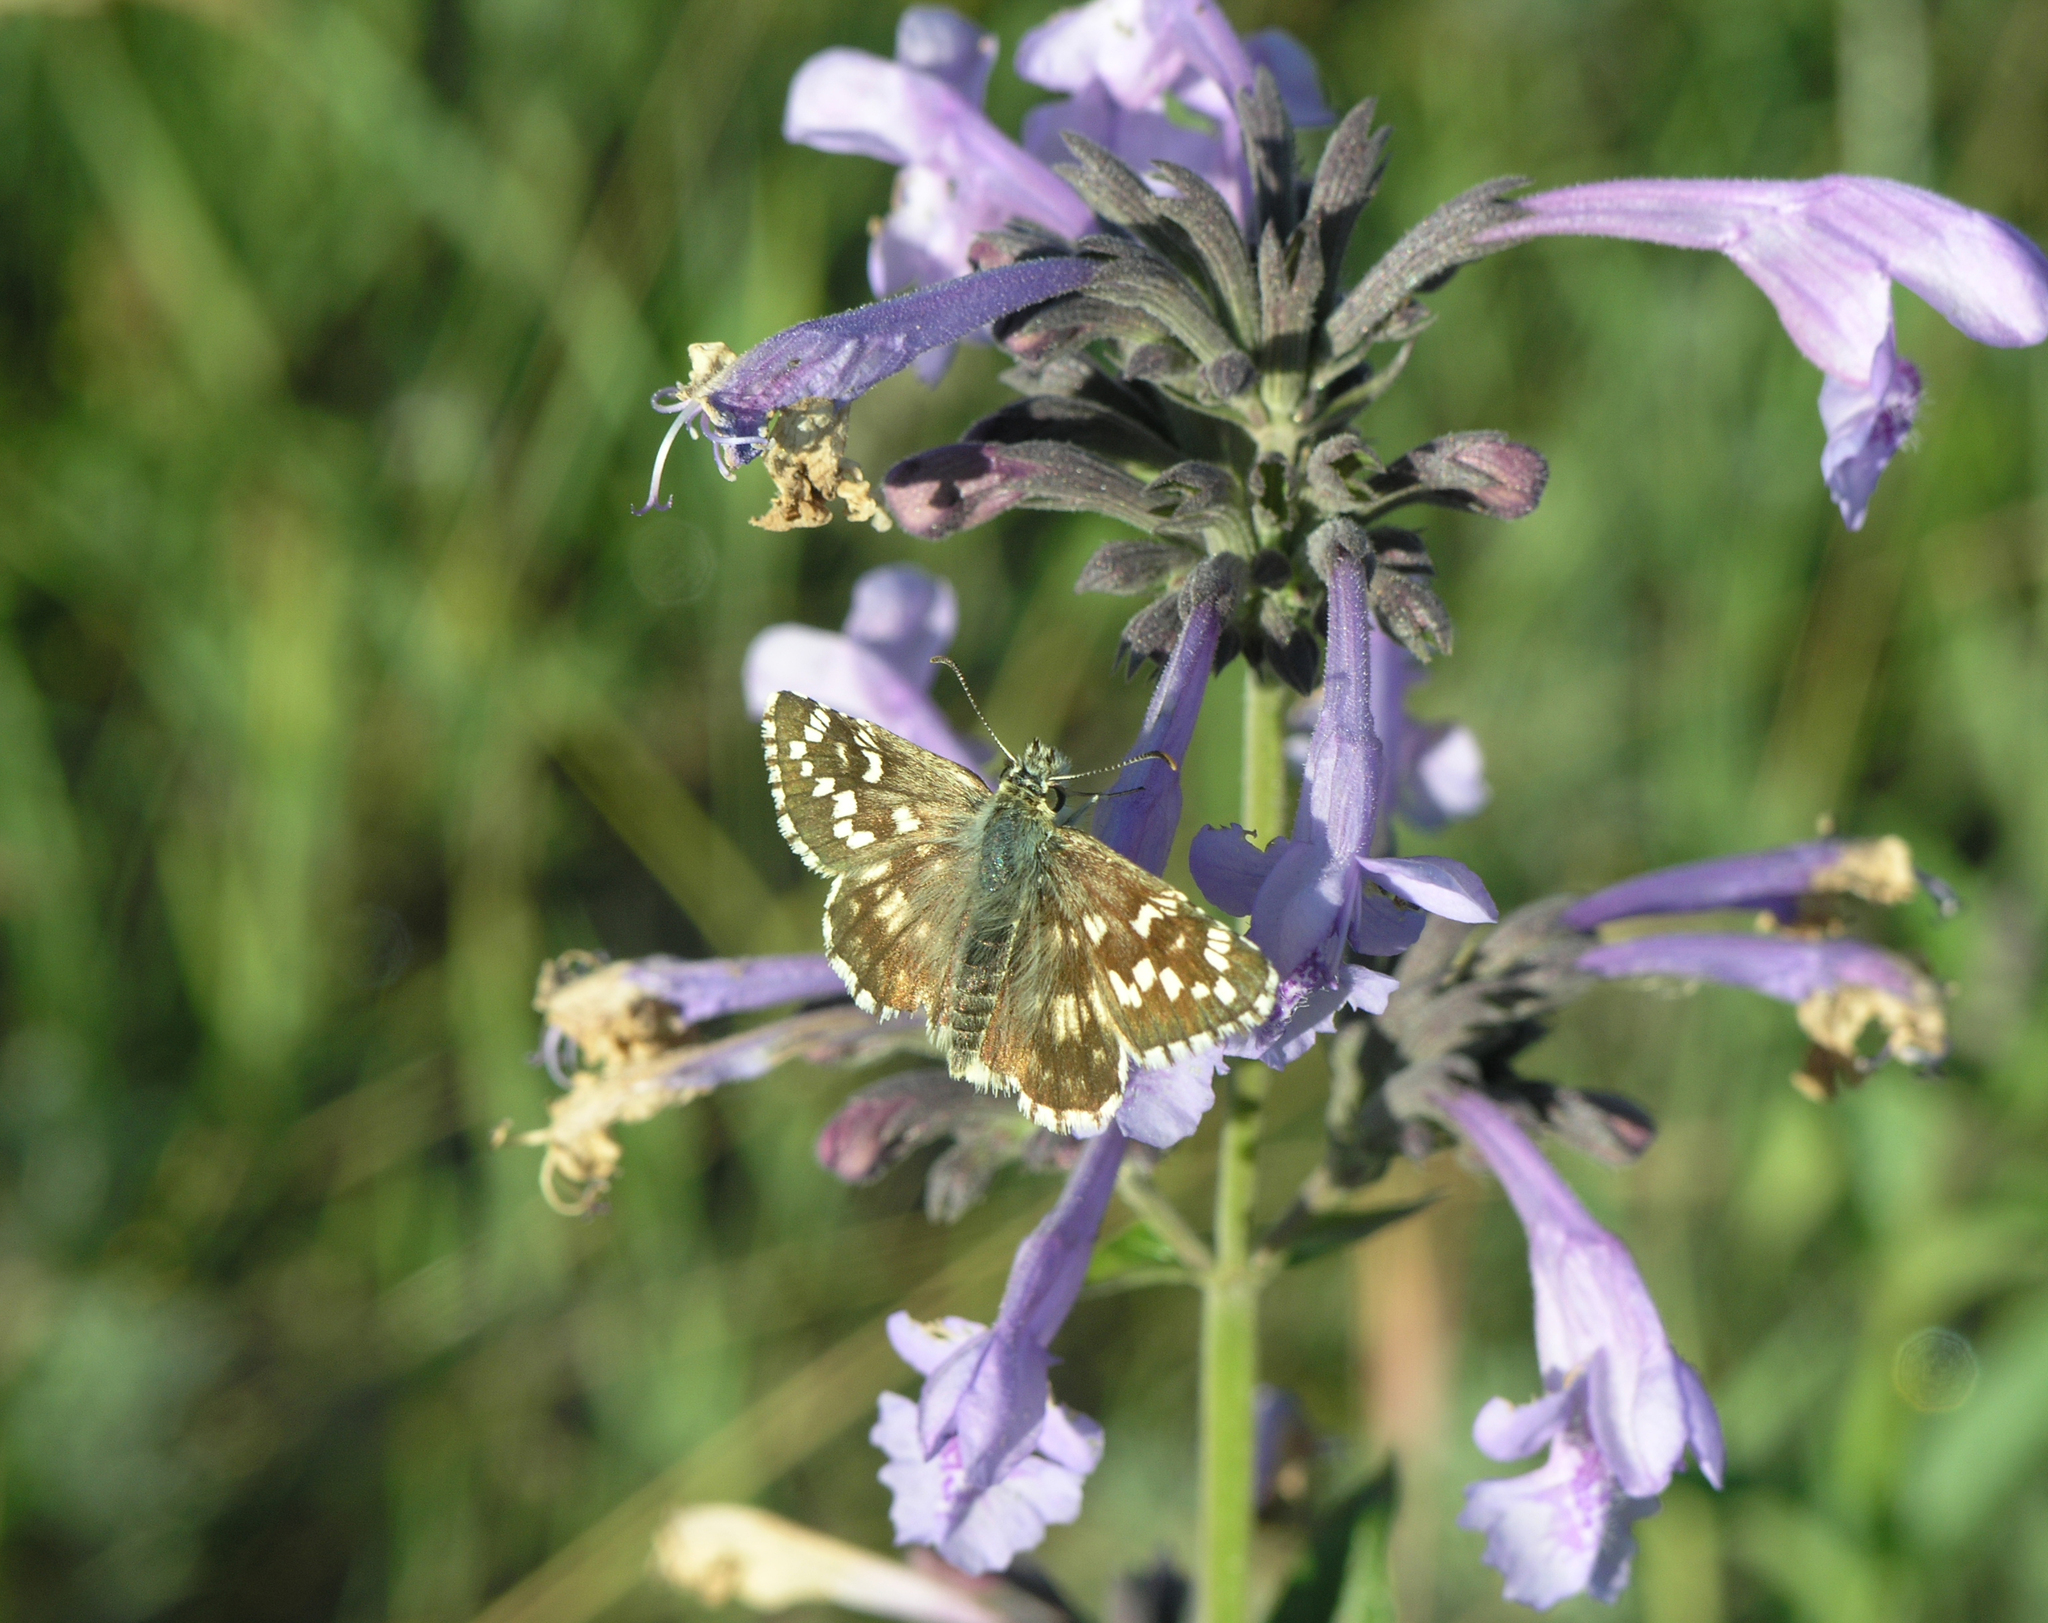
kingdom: Plantae
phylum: Tracheophyta
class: Magnoliopsida
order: Lamiales
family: Lamiaceae
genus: Nepeta
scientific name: Nepeta sibirica
